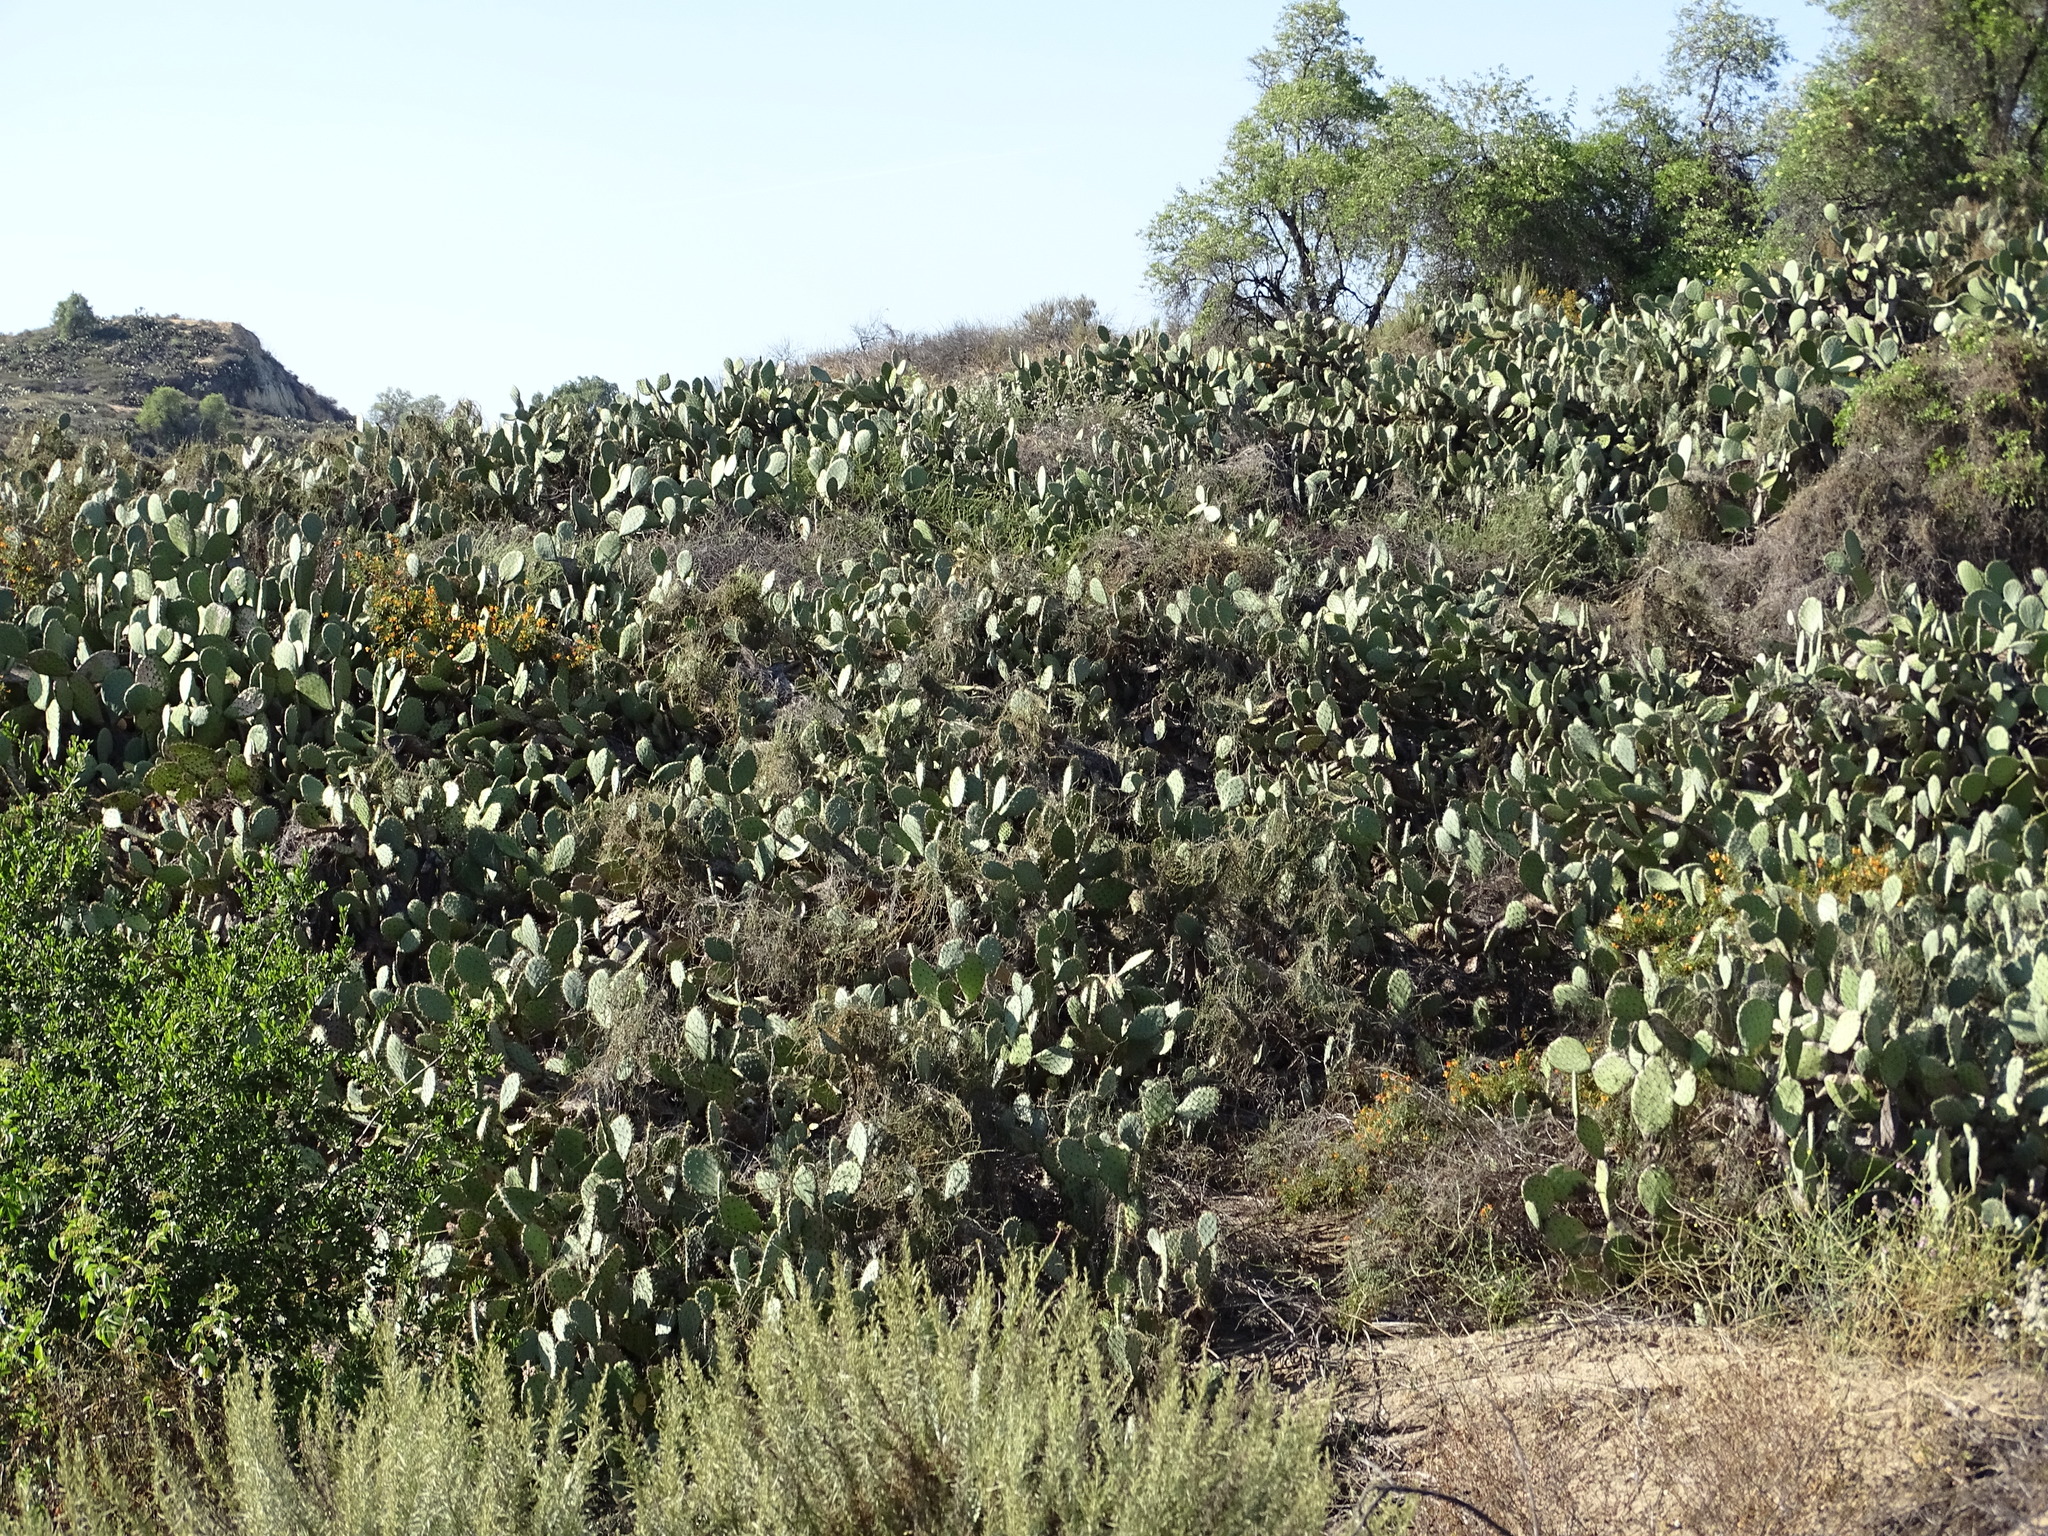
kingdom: Plantae
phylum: Tracheophyta
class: Magnoliopsida
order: Caryophyllales
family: Cactaceae
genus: Opuntia
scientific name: Opuntia
